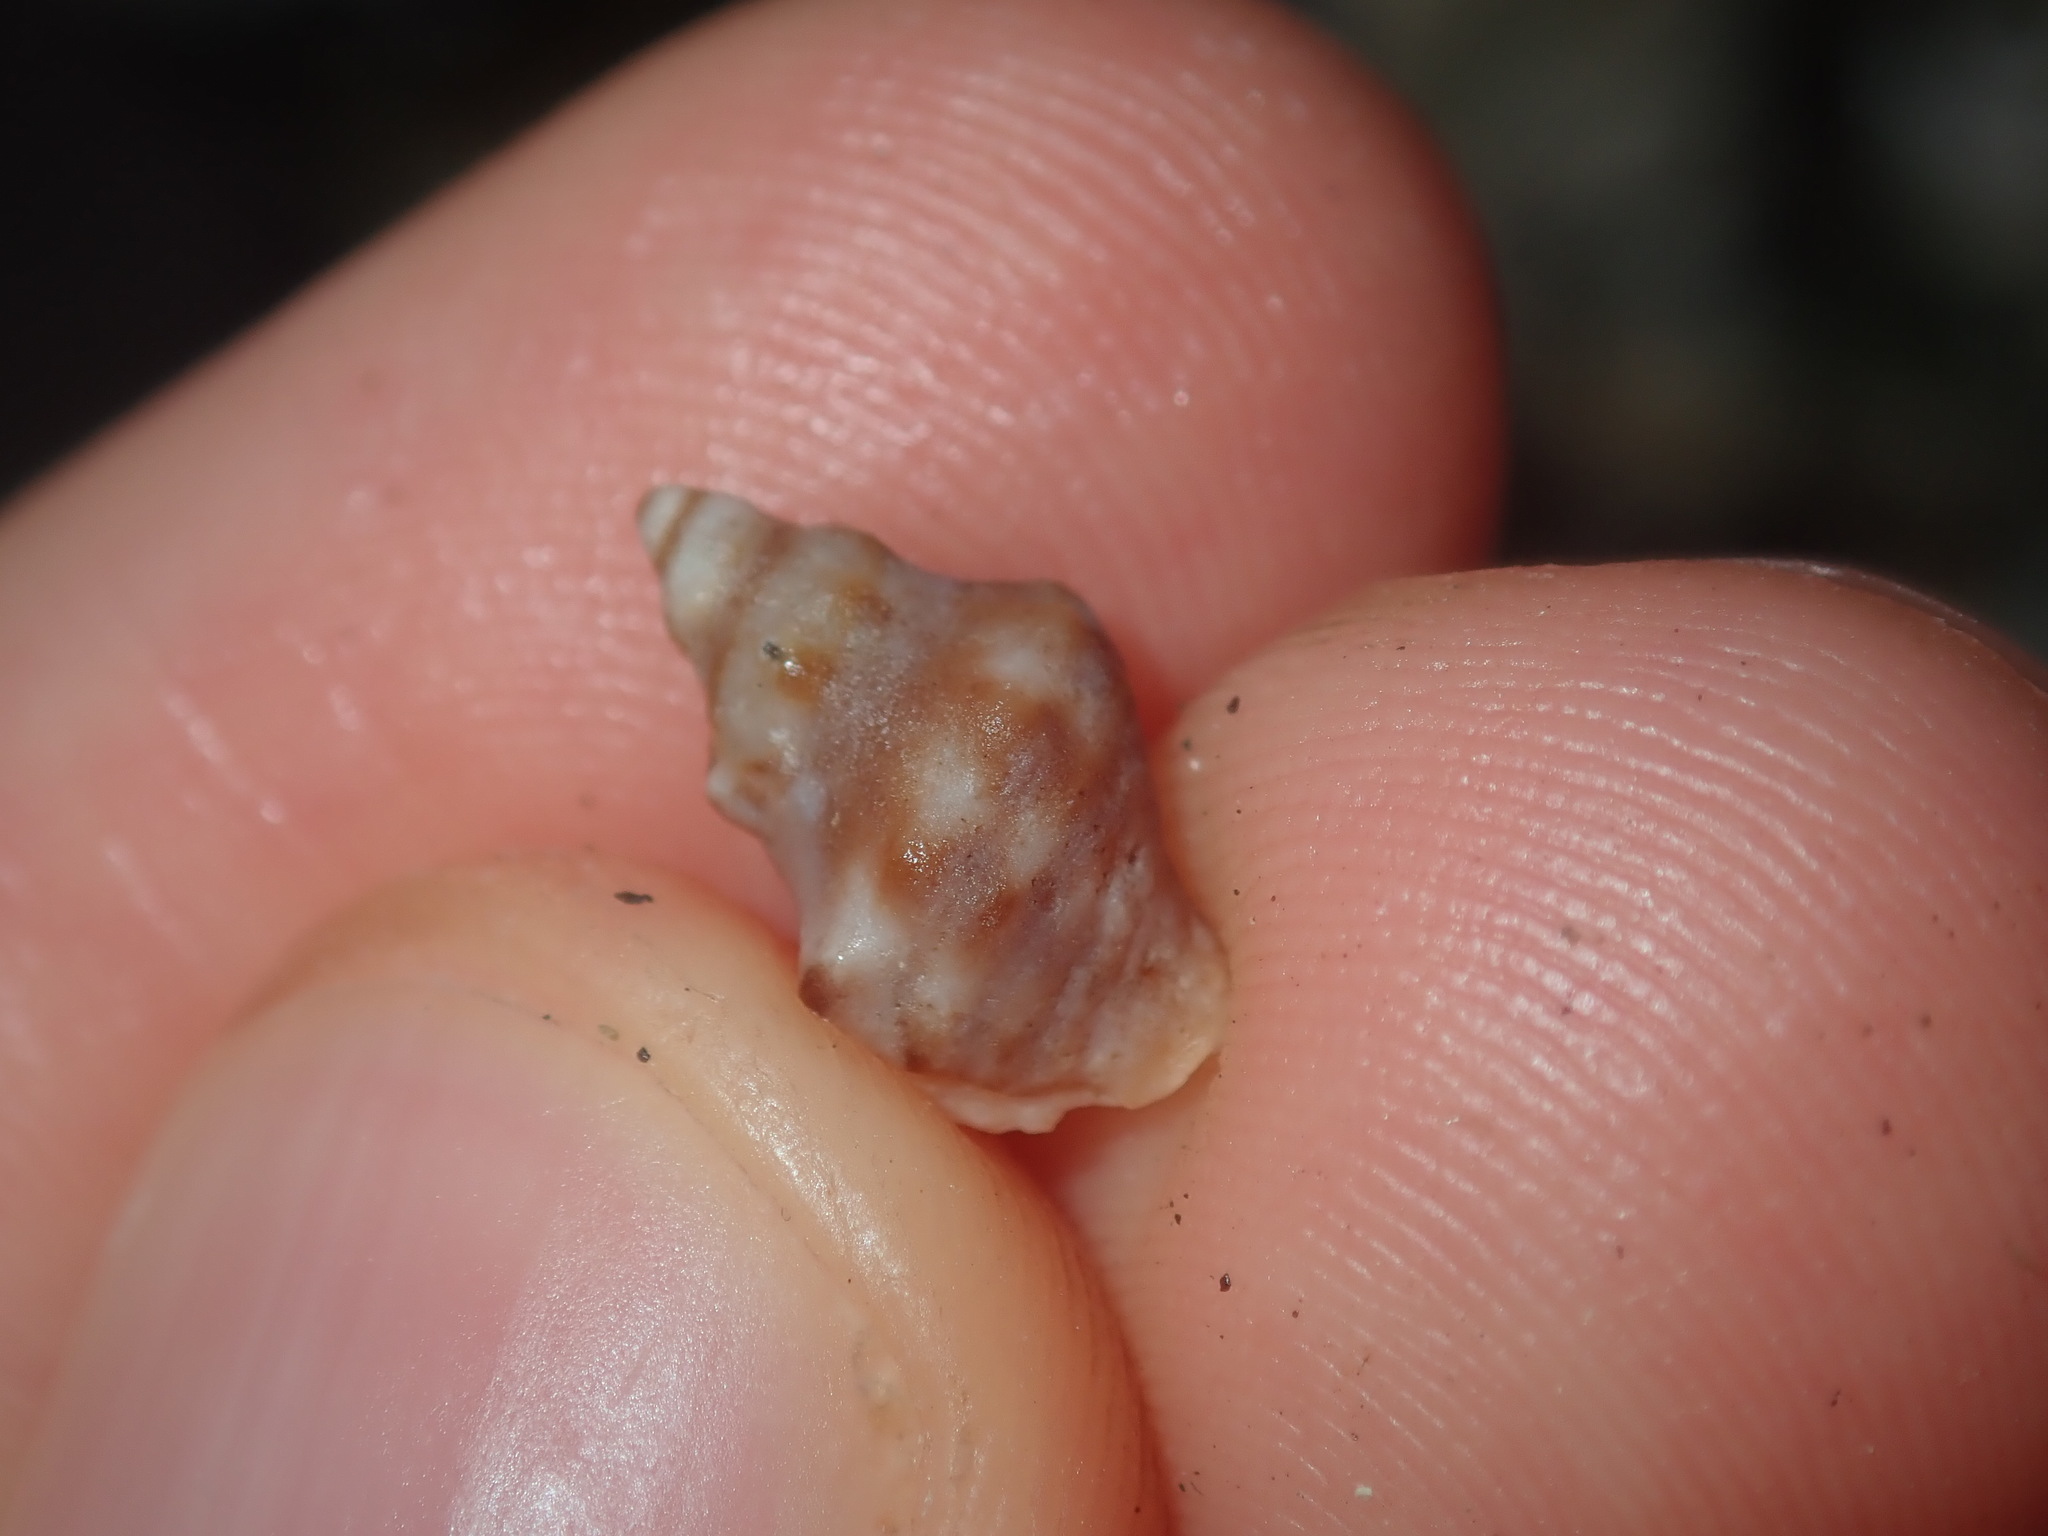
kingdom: Animalia
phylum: Mollusca
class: Gastropoda
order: Neogastropoda
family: Muricidae
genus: Phycothais
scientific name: Phycothais reticulata
